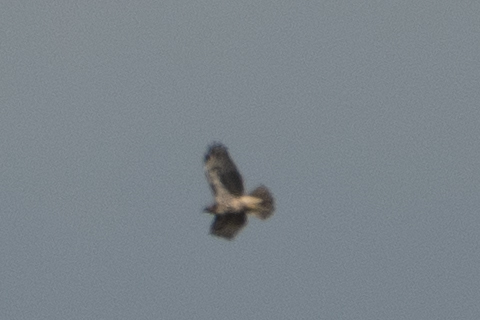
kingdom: Animalia
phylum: Chordata
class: Aves
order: Accipitriformes
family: Accipitridae
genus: Buteo
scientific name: Buteo jamaicensis
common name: Red-tailed hawk
